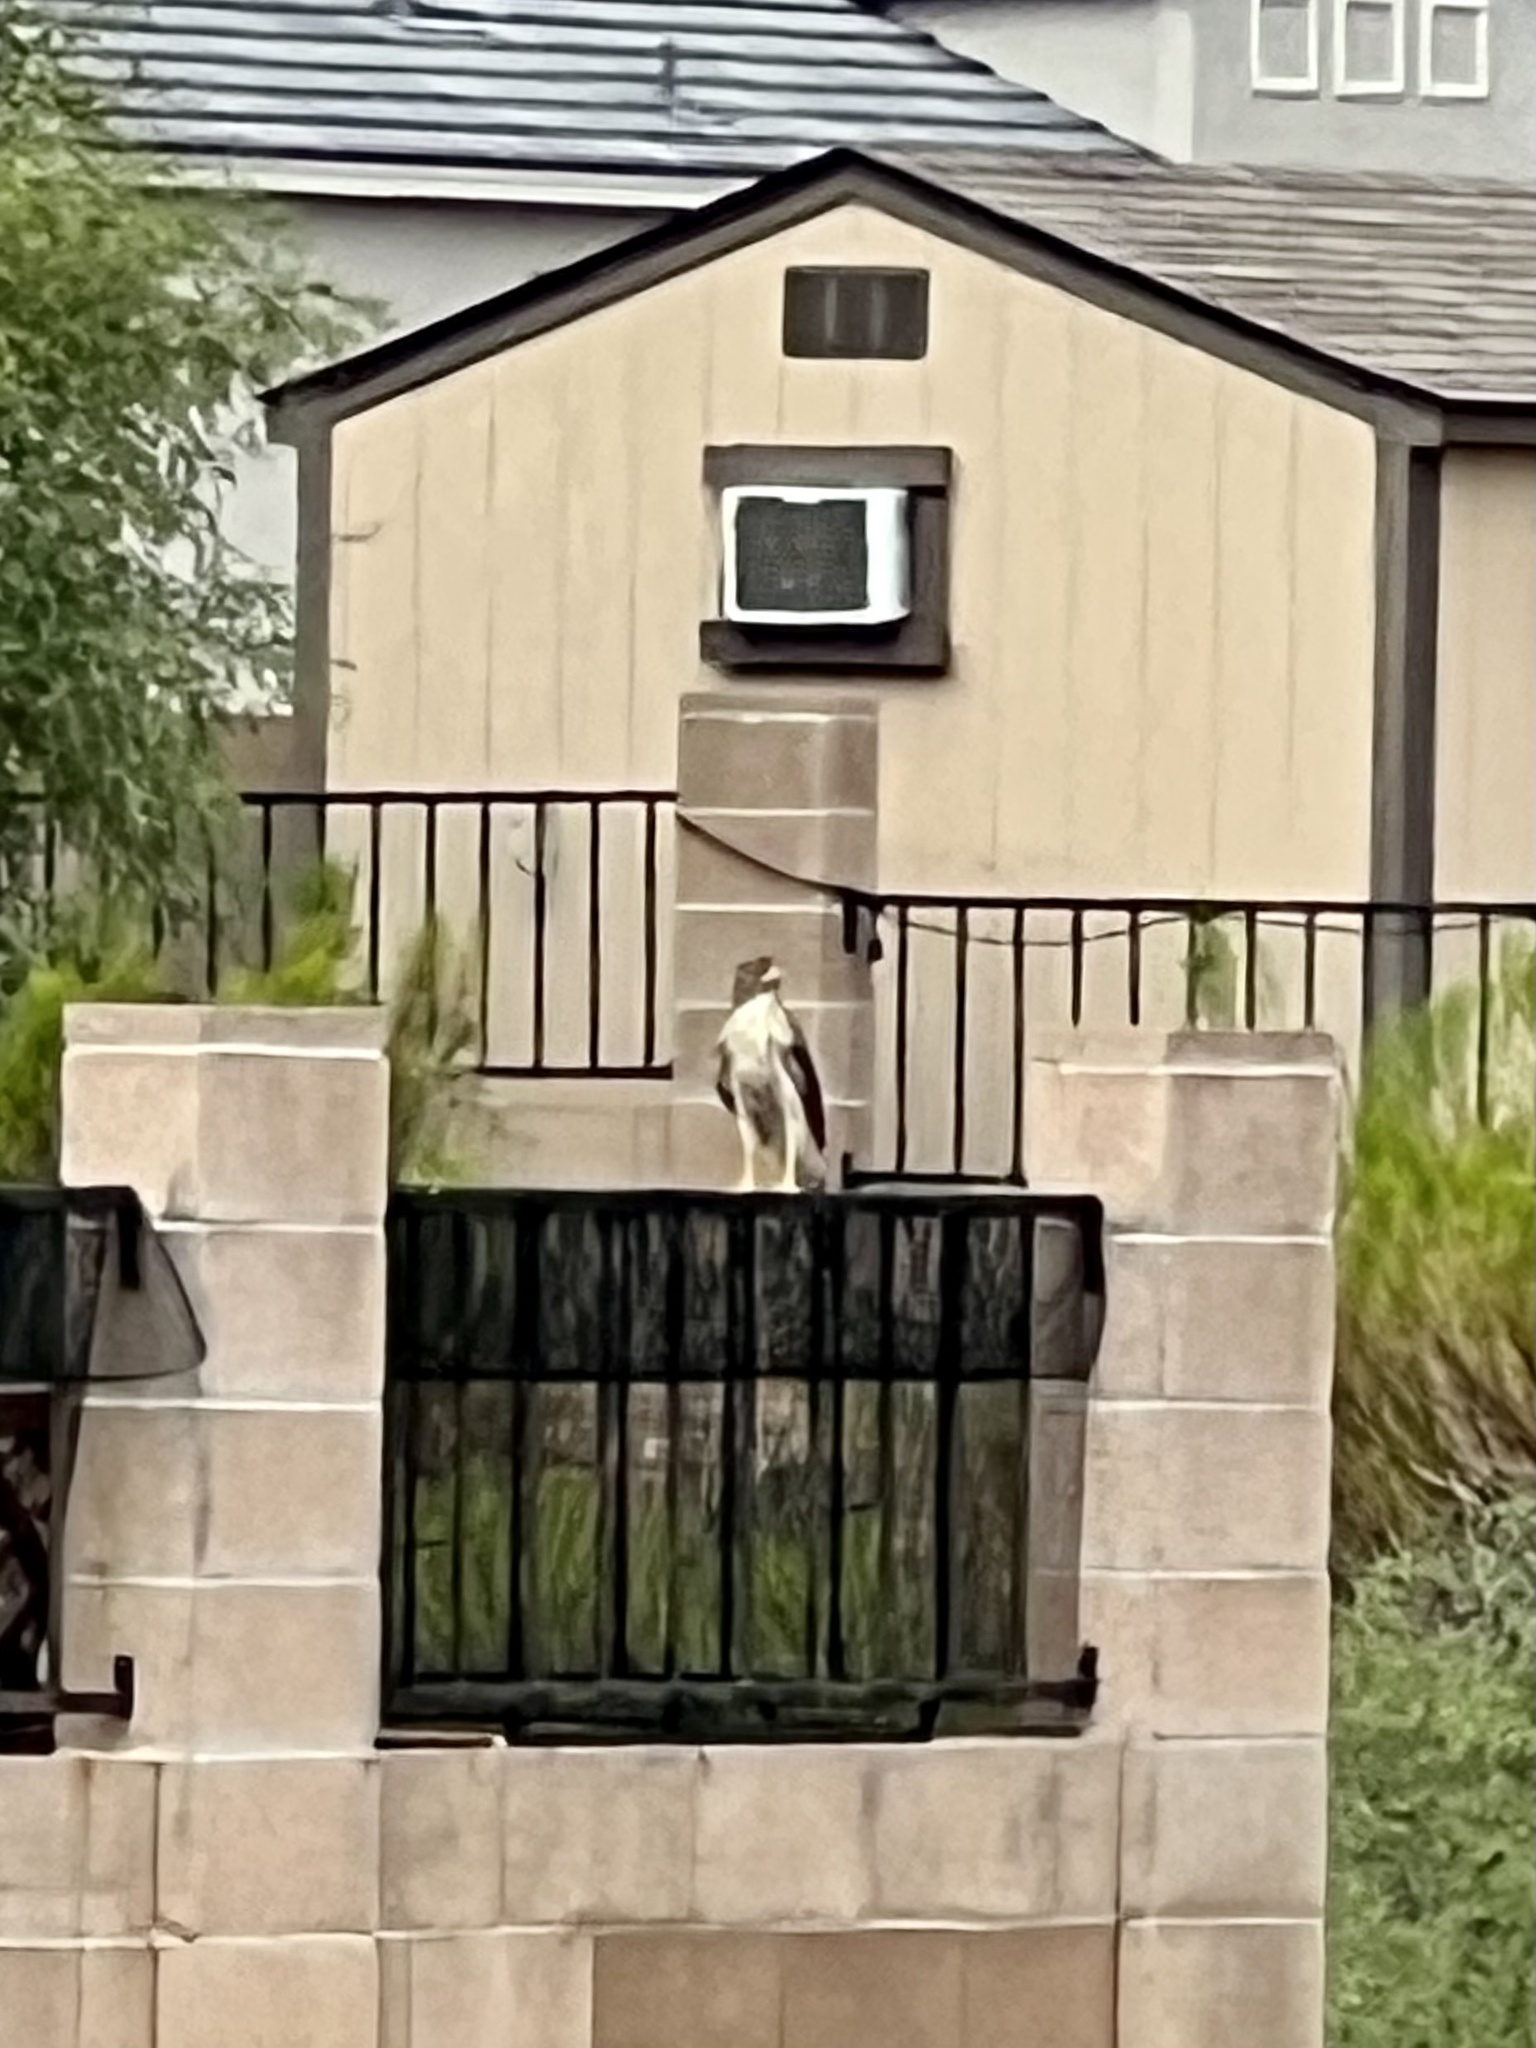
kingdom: Animalia
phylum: Chordata
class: Aves
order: Accipitriformes
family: Accipitridae
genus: Accipiter
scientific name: Accipiter cooperii
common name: Cooper's hawk
